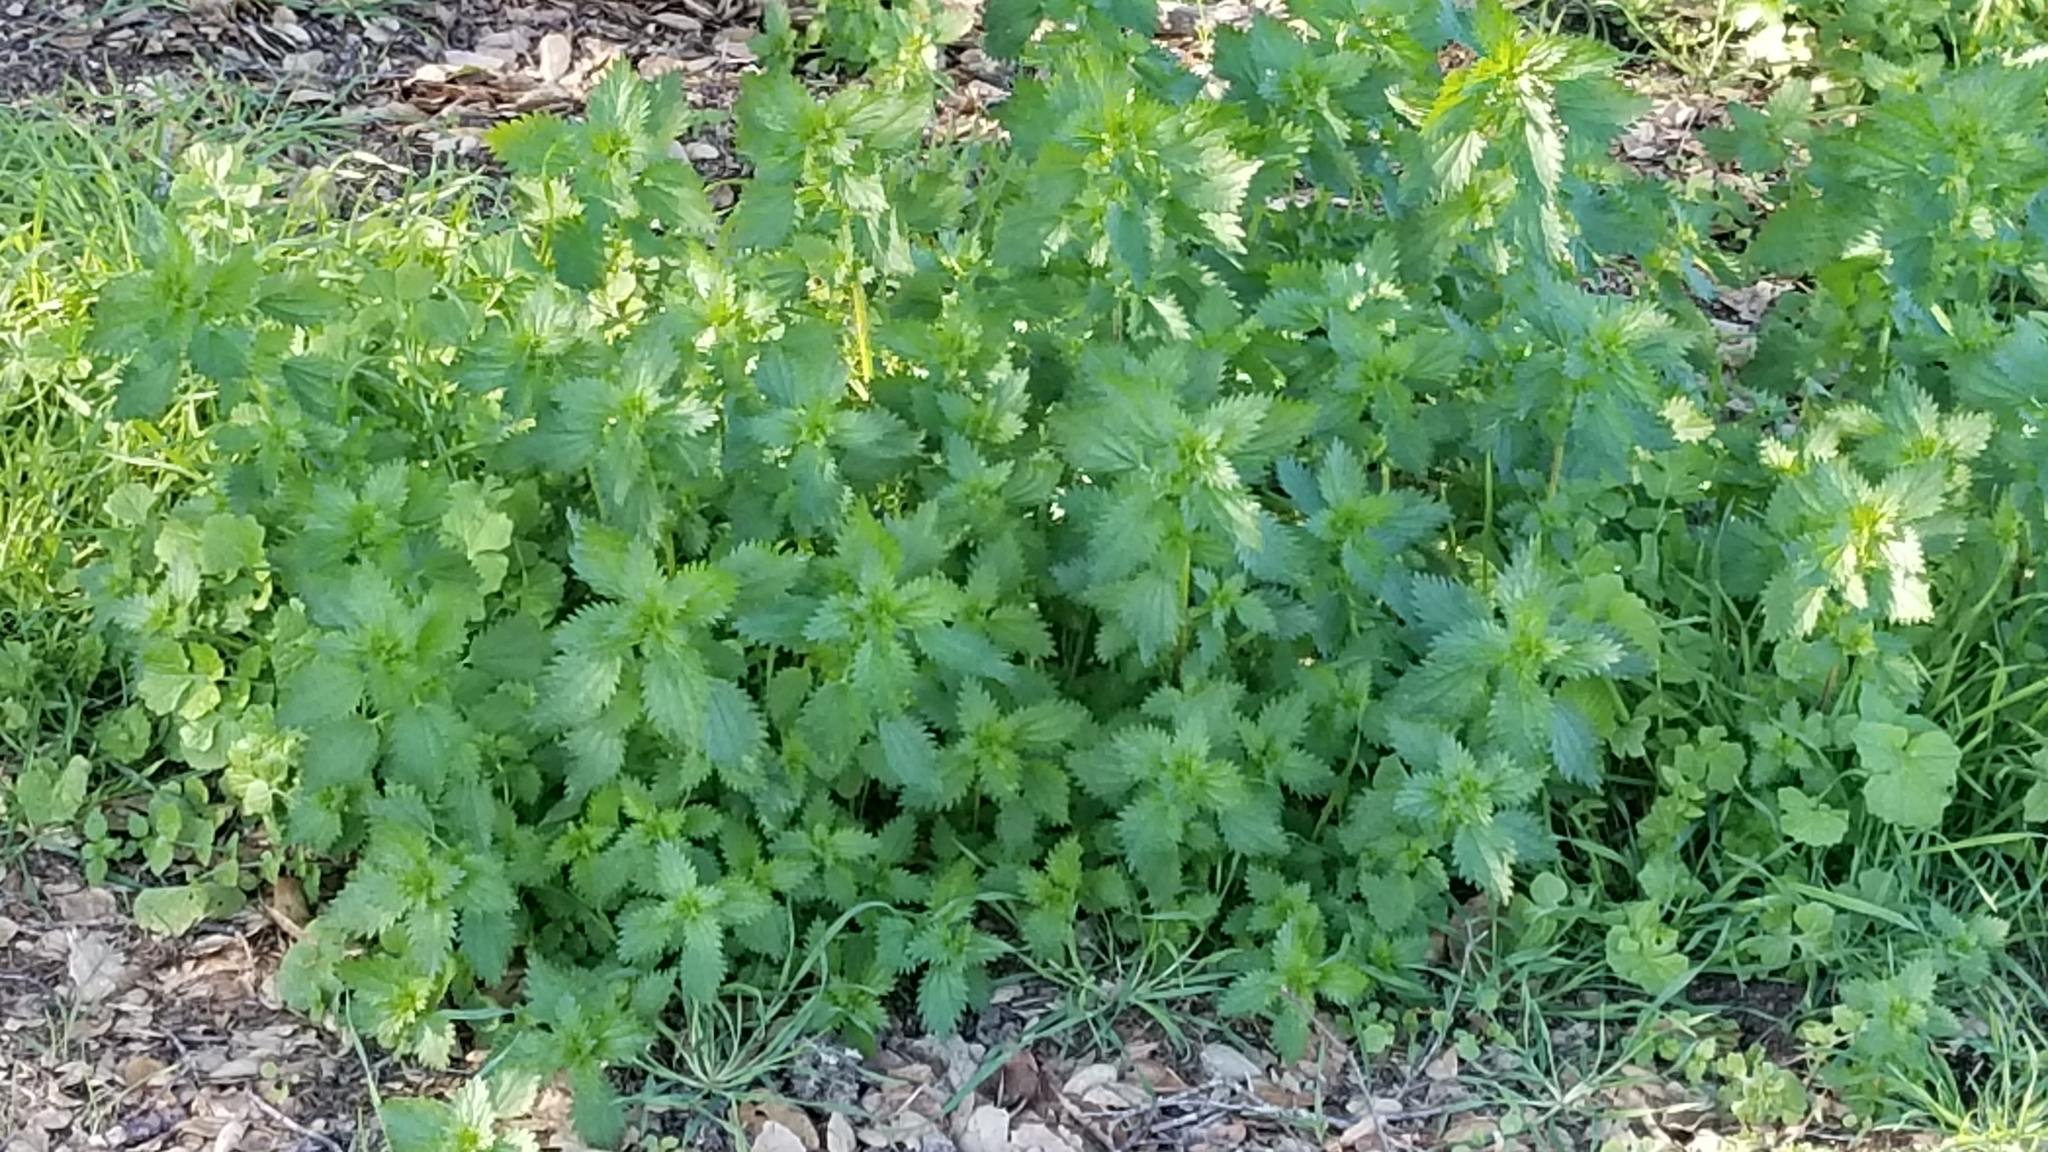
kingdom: Plantae
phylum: Tracheophyta
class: Magnoliopsida
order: Rosales
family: Urticaceae
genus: Urtica
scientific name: Urtica urens
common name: Dwarf nettle
